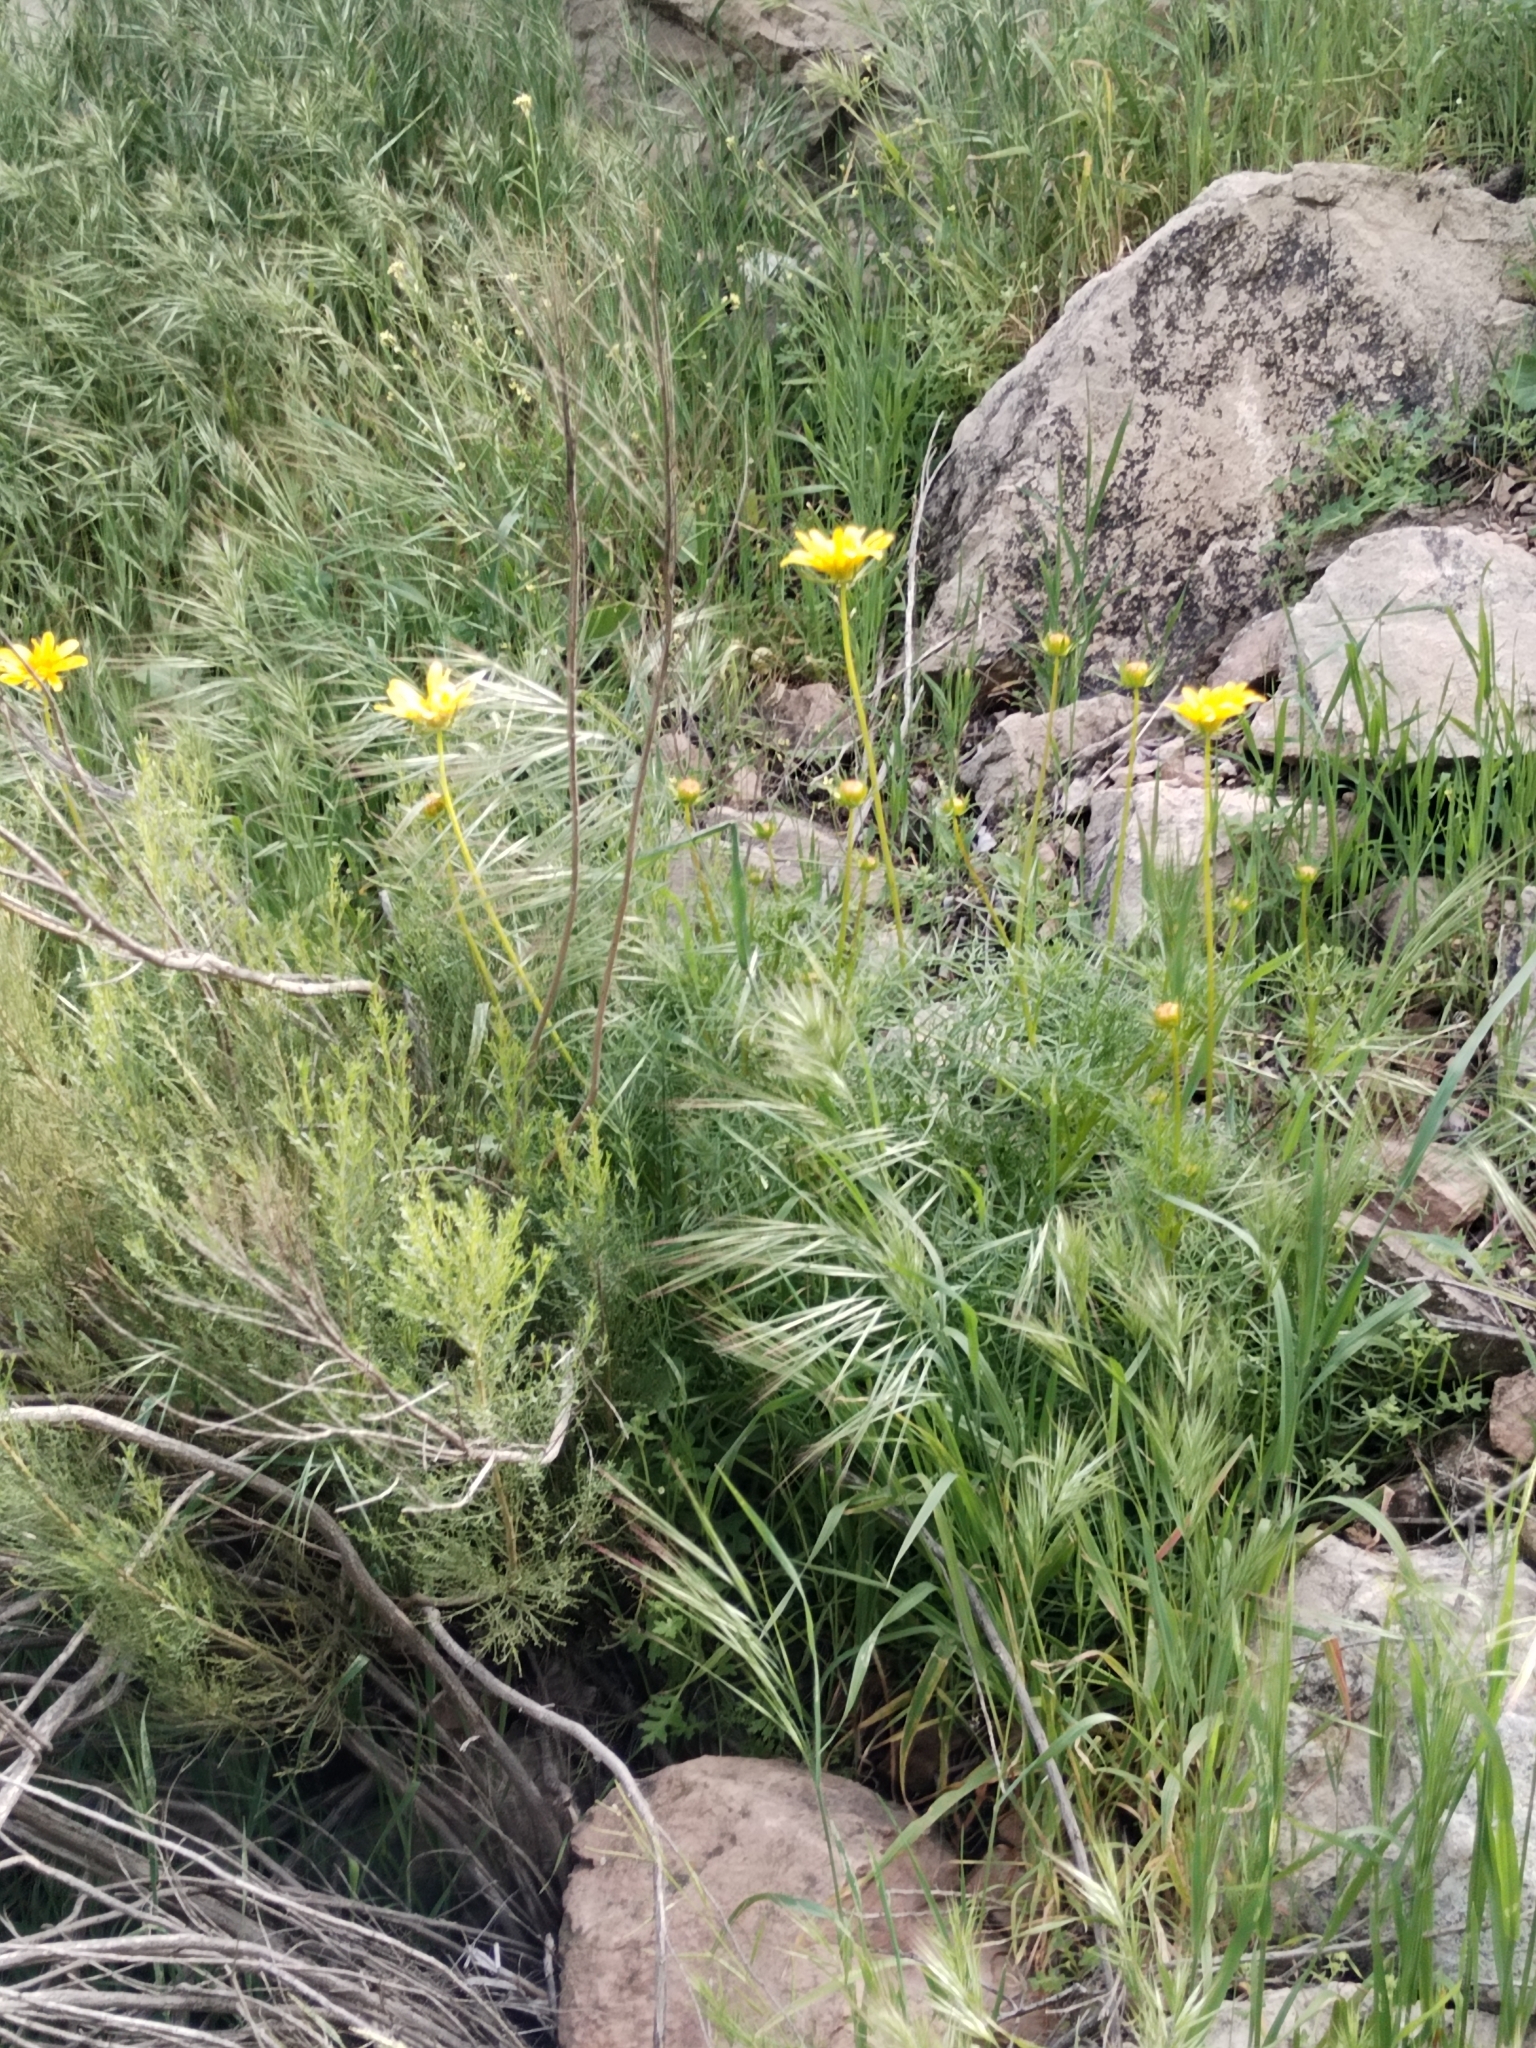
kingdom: Plantae
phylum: Tracheophyta
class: Magnoliopsida
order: Asterales
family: Asteraceae
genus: Coreopsis
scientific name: Coreopsis maritima
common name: Sea-dahlia
